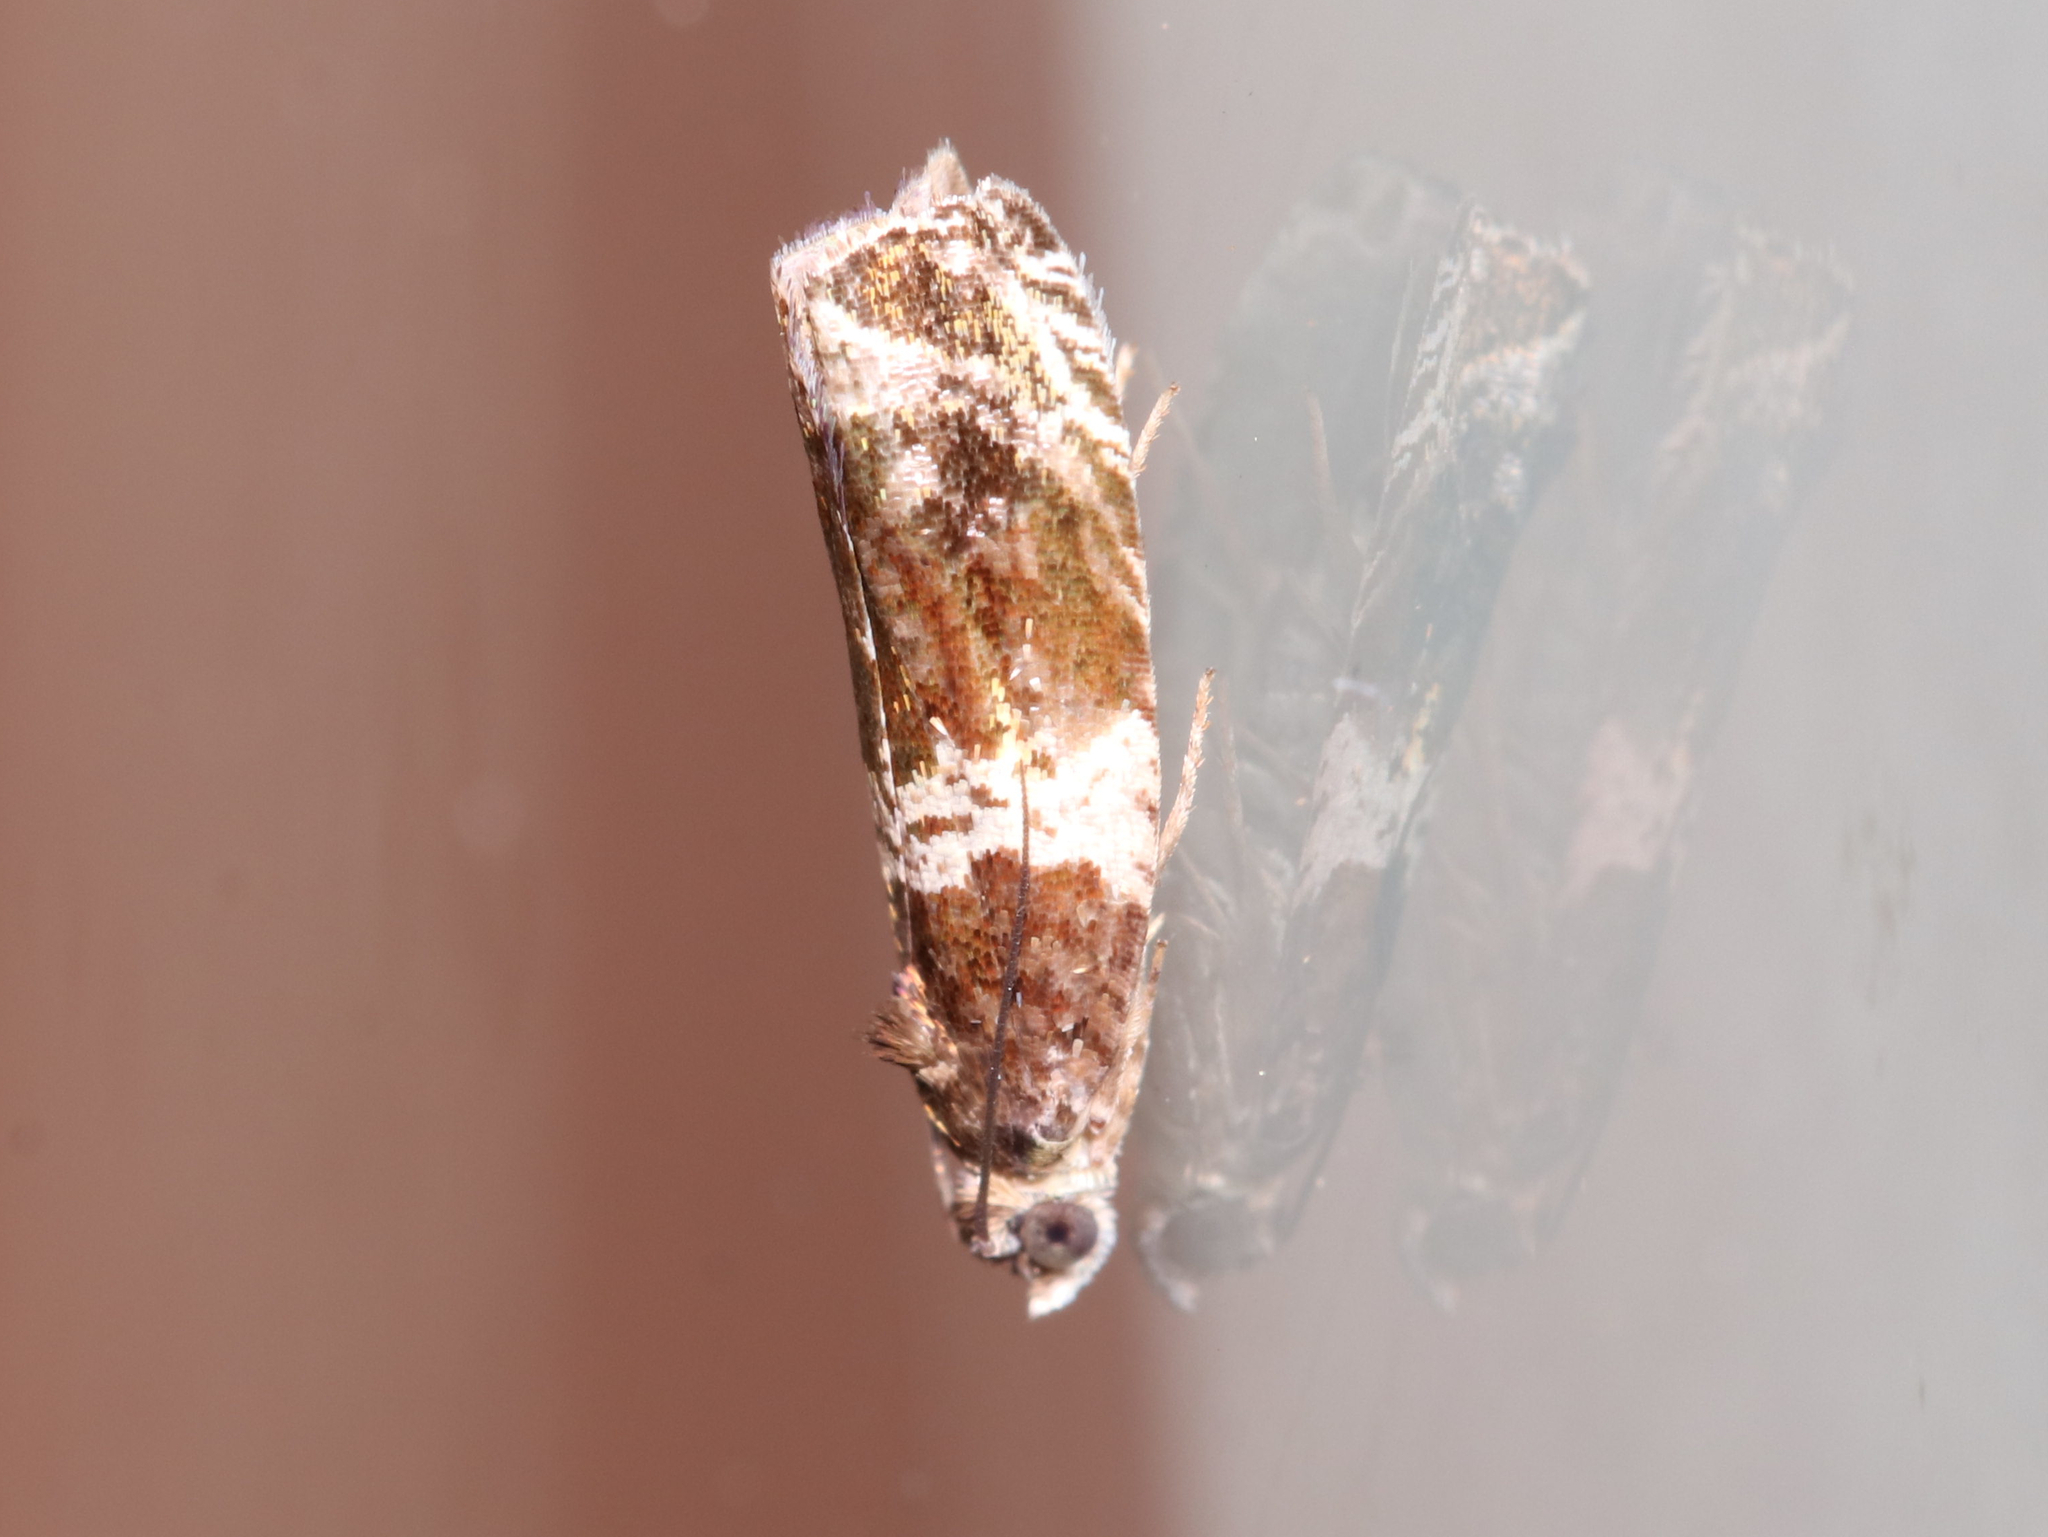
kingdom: Animalia
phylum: Arthropoda
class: Insecta
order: Lepidoptera
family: Tortricidae
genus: Olethreutes
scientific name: Olethreutes fasciatana
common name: Banded olethreutes moth
